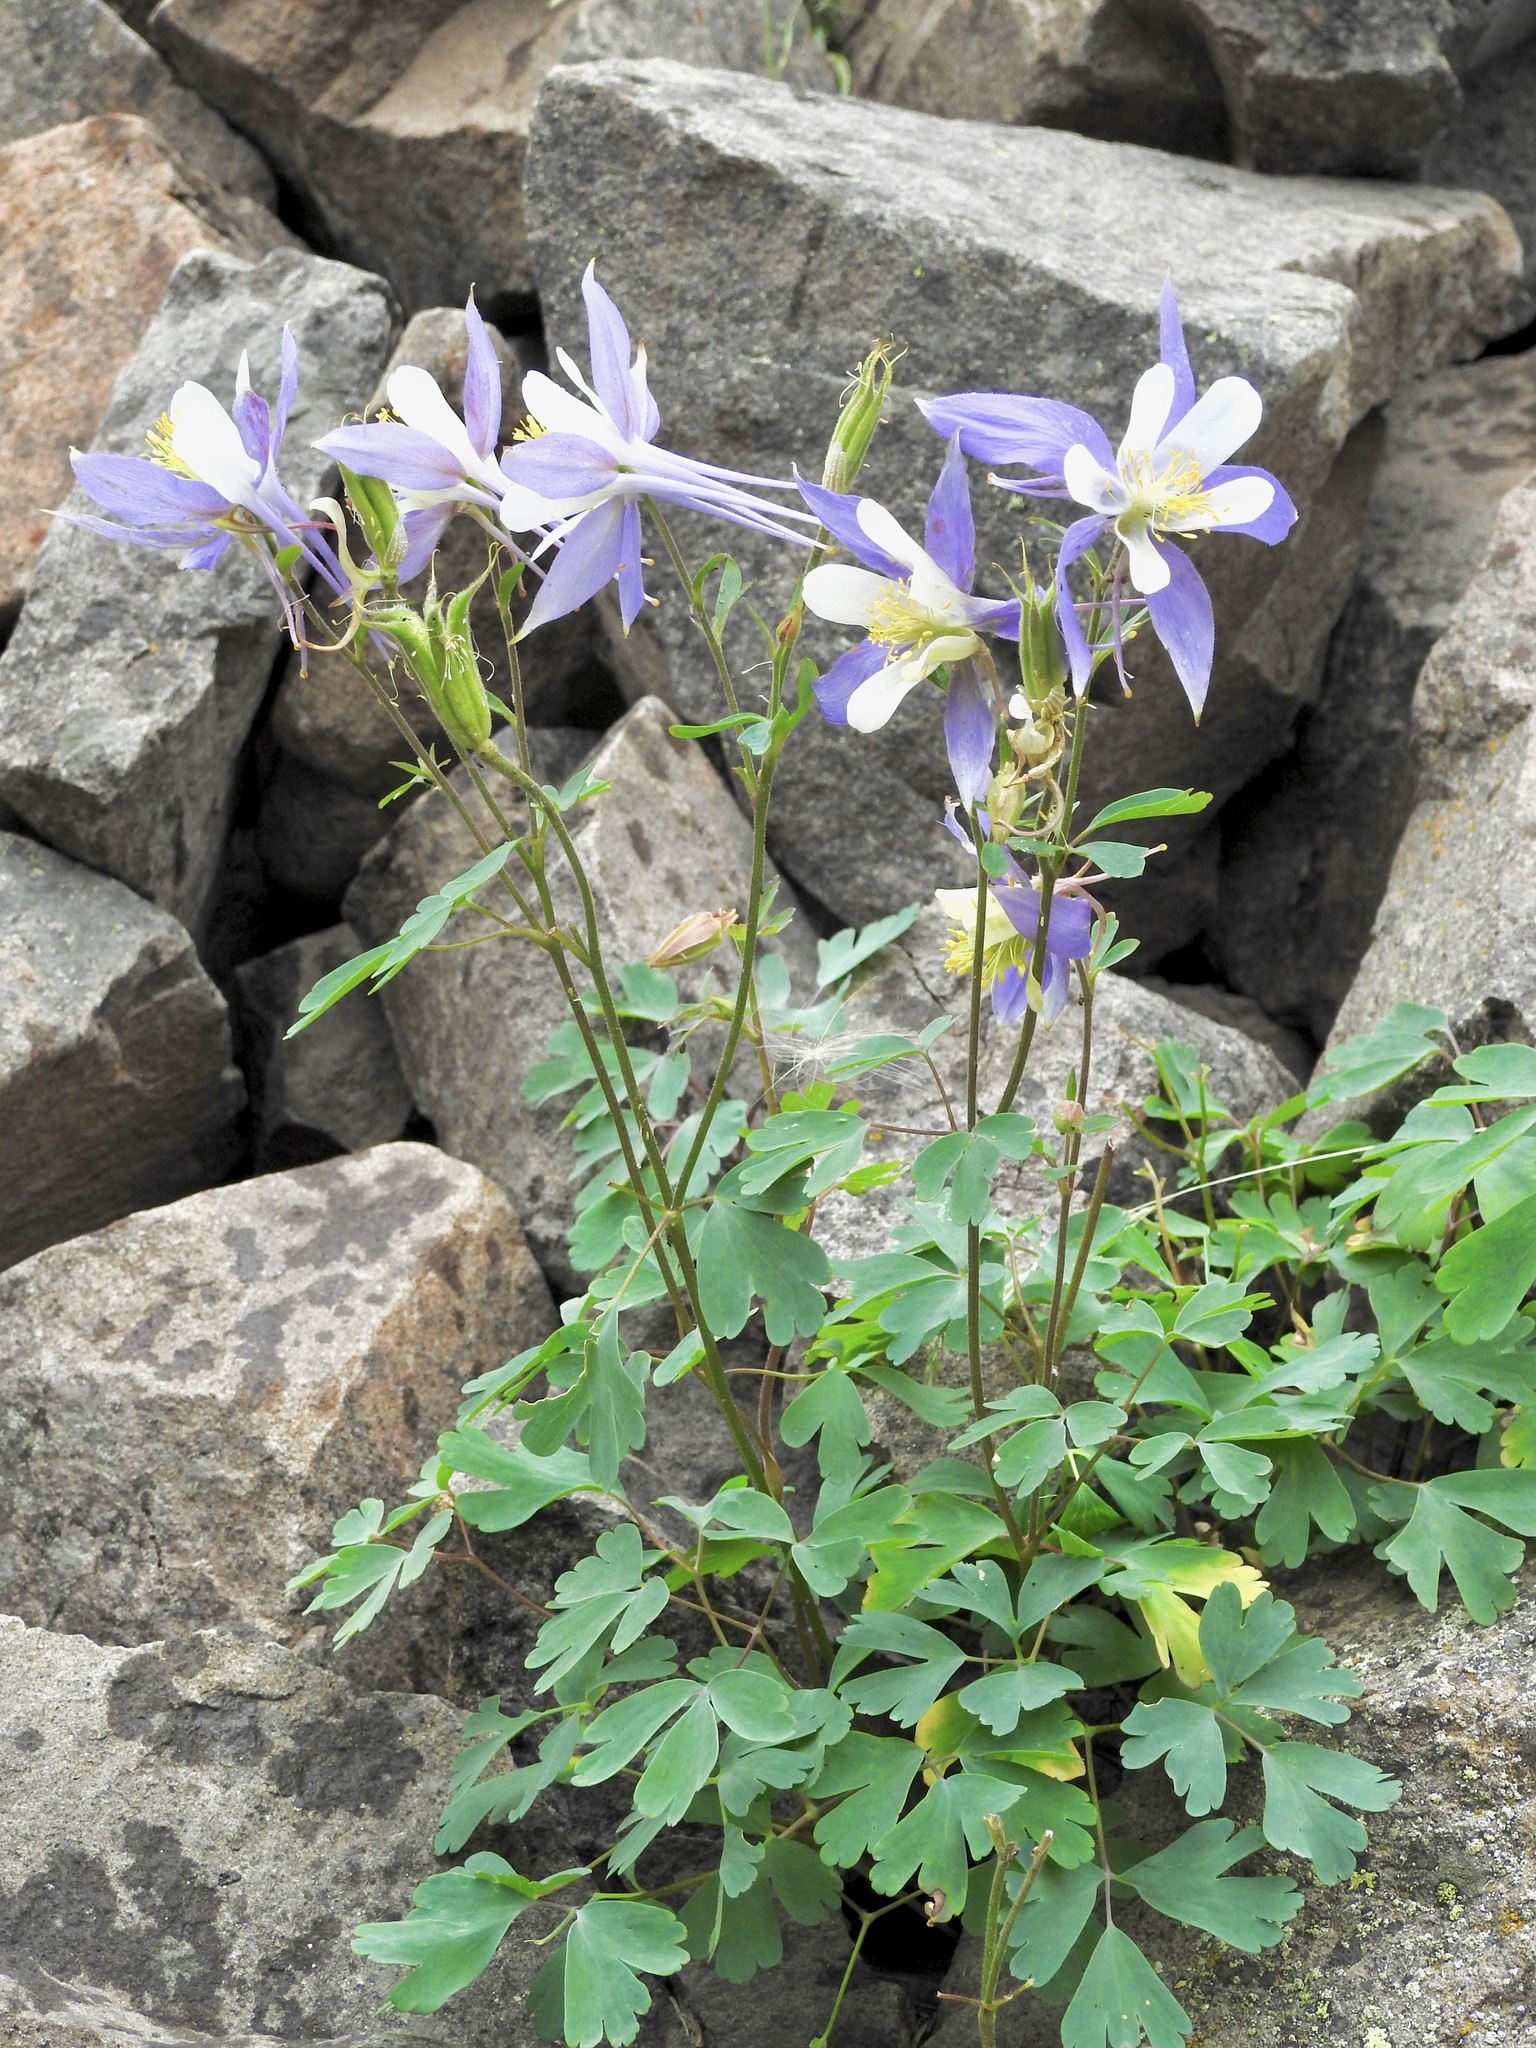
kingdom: Plantae
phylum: Tracheophyta
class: Magnoliopsida
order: Ranunculales
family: Ranunculaceae
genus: Aquilegia
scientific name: Aquilegia coerulea
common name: Rocky mountain columbine
